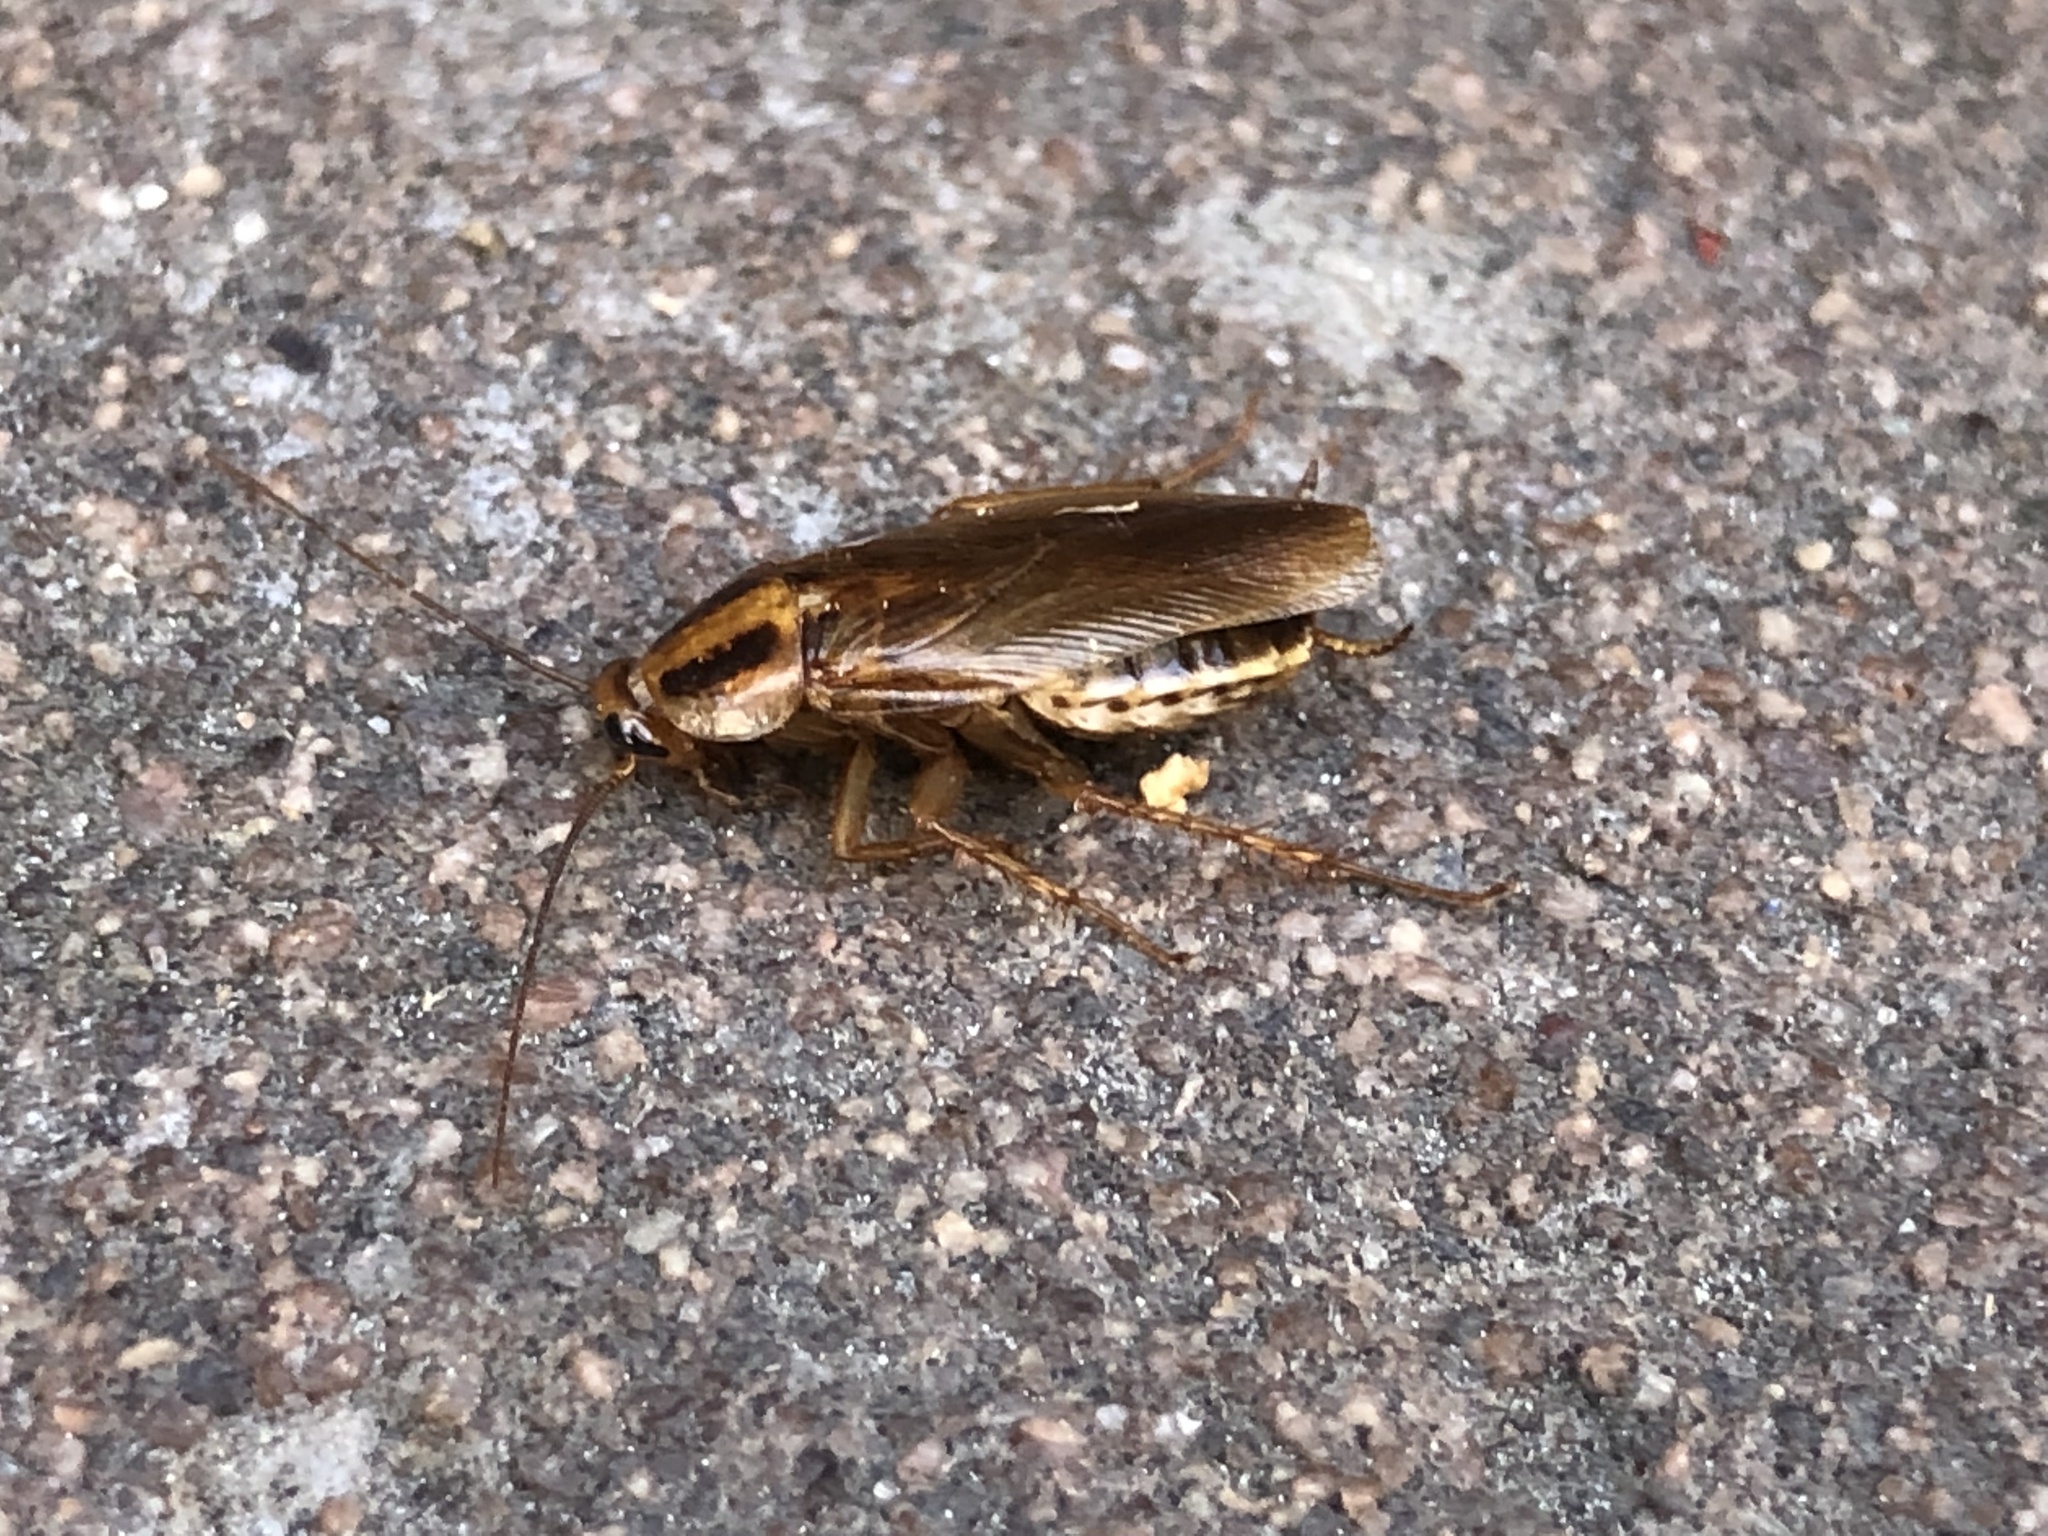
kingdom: Animalia
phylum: Arthropoda
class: Insecta
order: Blattodea
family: Ectobiidae
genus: Blattella
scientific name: Blattella germanica
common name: German cockroach
